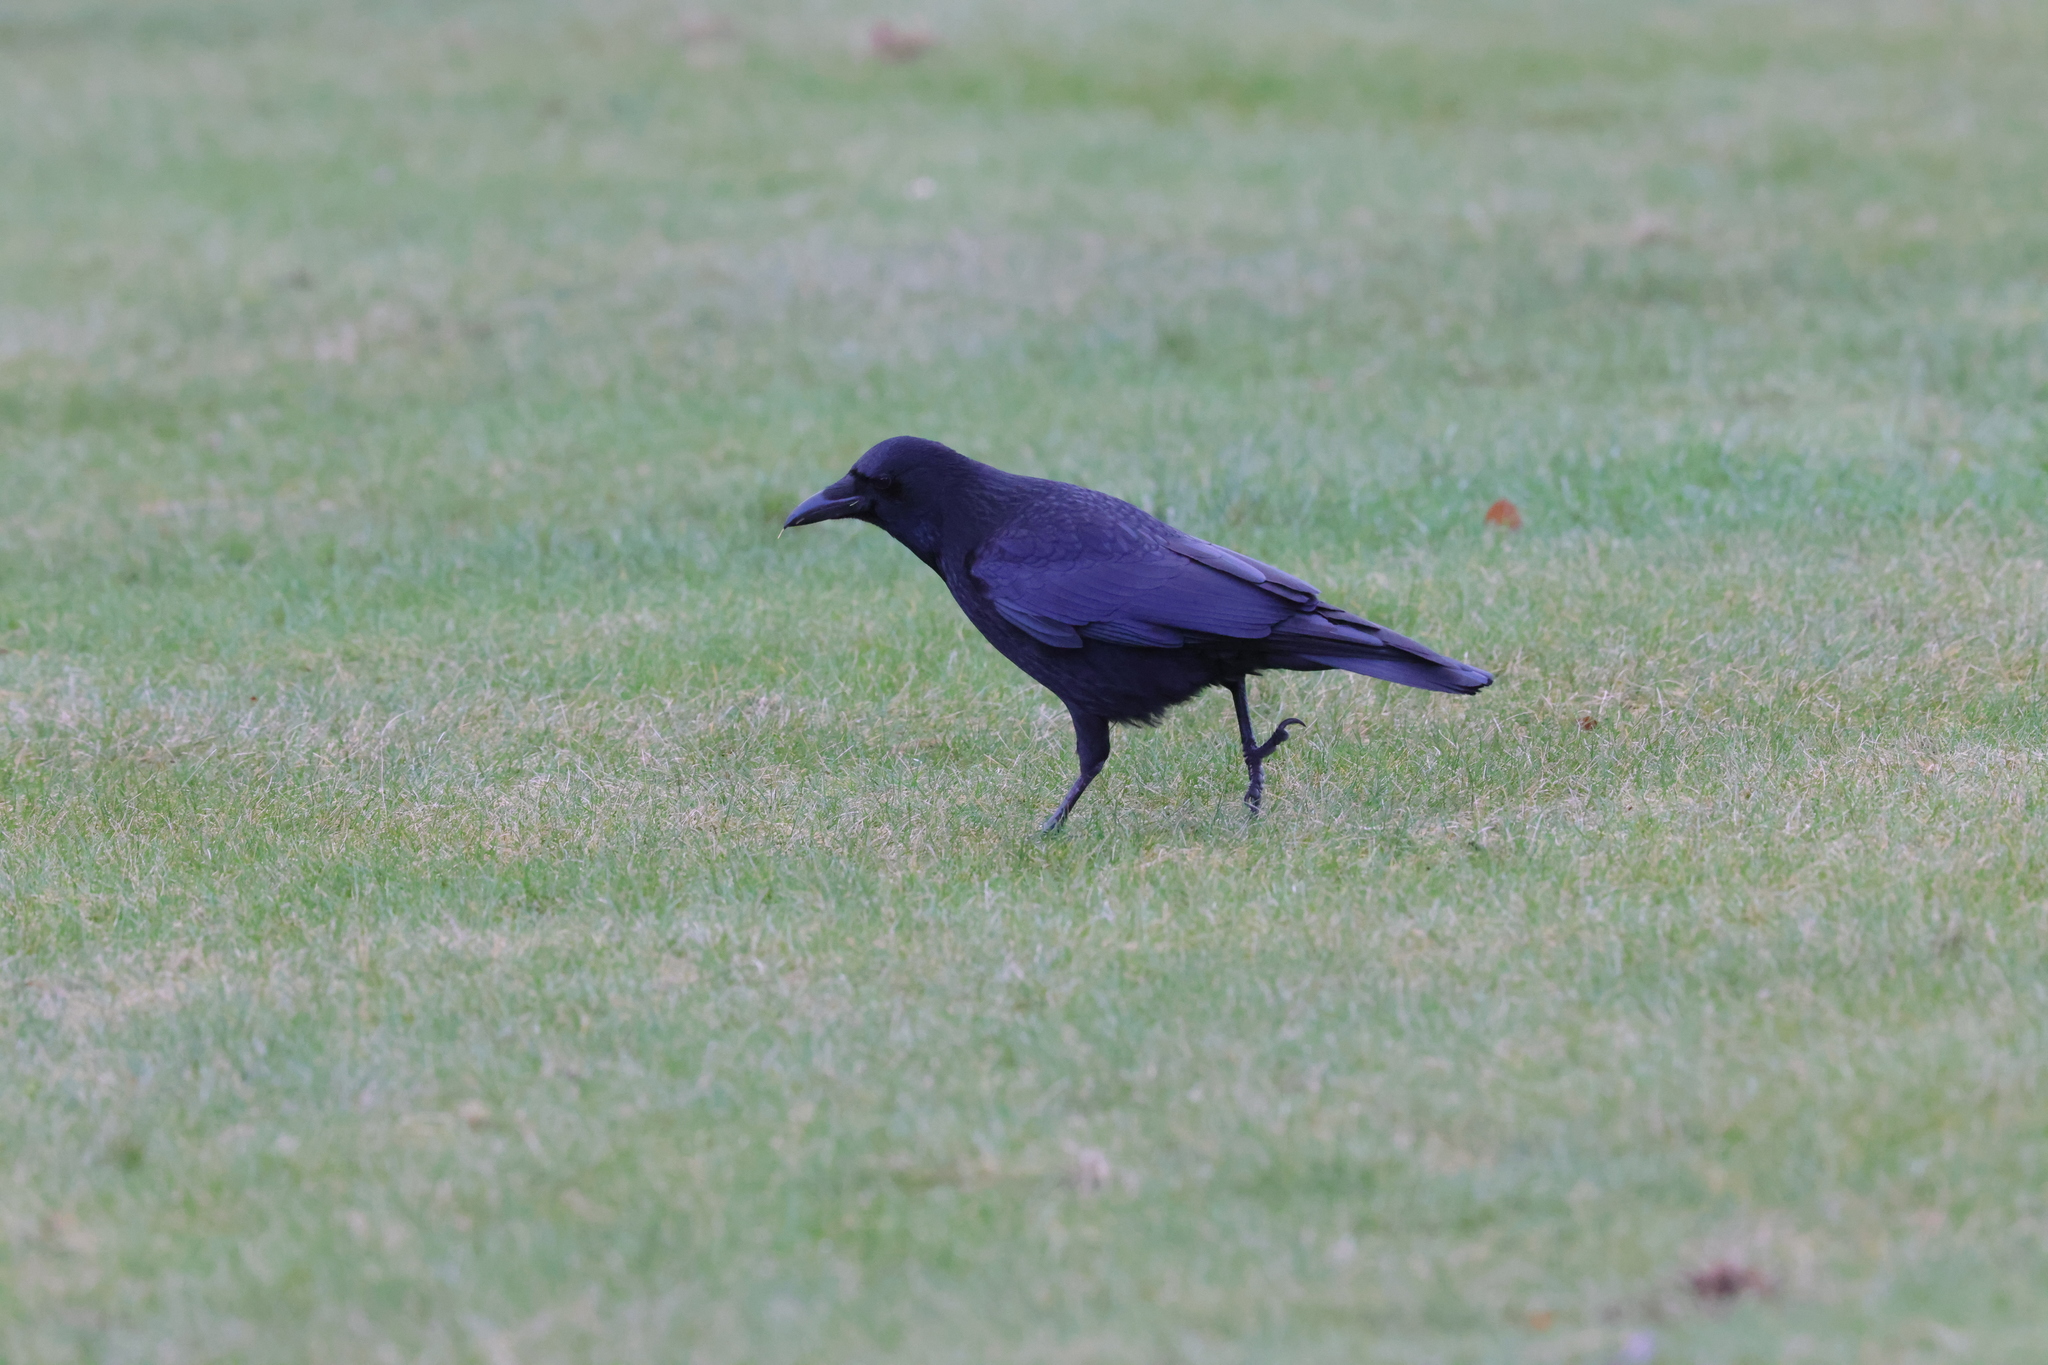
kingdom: Animalia
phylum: Chordata
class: Aves
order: Passeriformes
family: Corvidae
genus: Corvus
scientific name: Corvus corone
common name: Carrion crow
